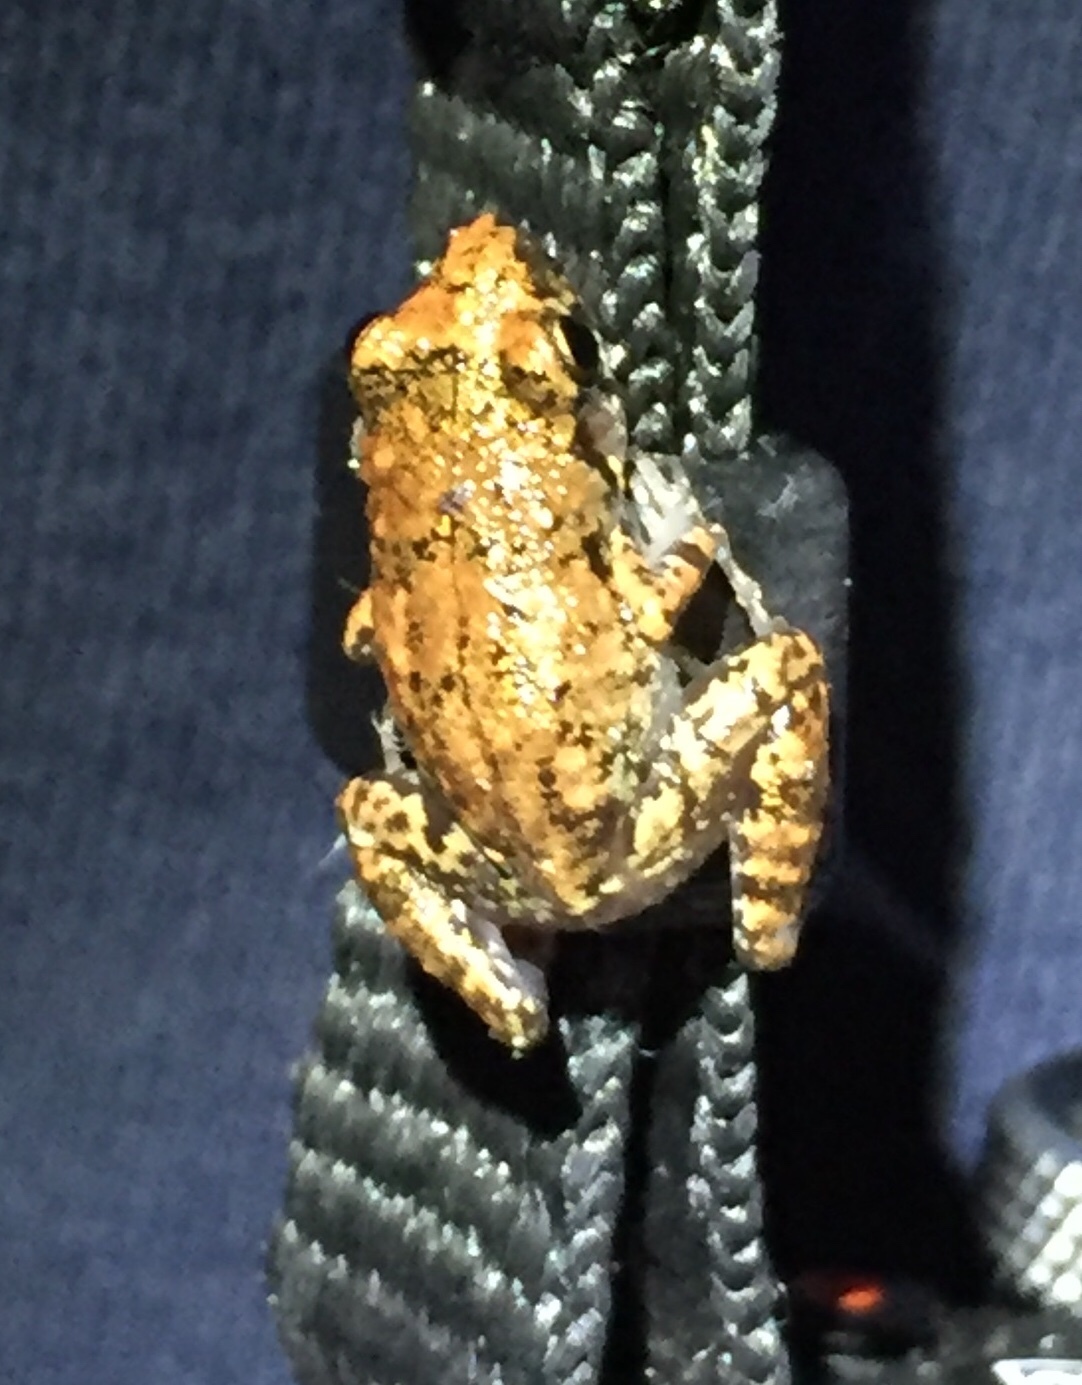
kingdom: Animalia
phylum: Chordata
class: Amphibia
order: Anura
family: Eleutherodactylidae
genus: Eleutherodactylus
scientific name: Eleutherodactylus planirostris
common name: Greenhouse frog
